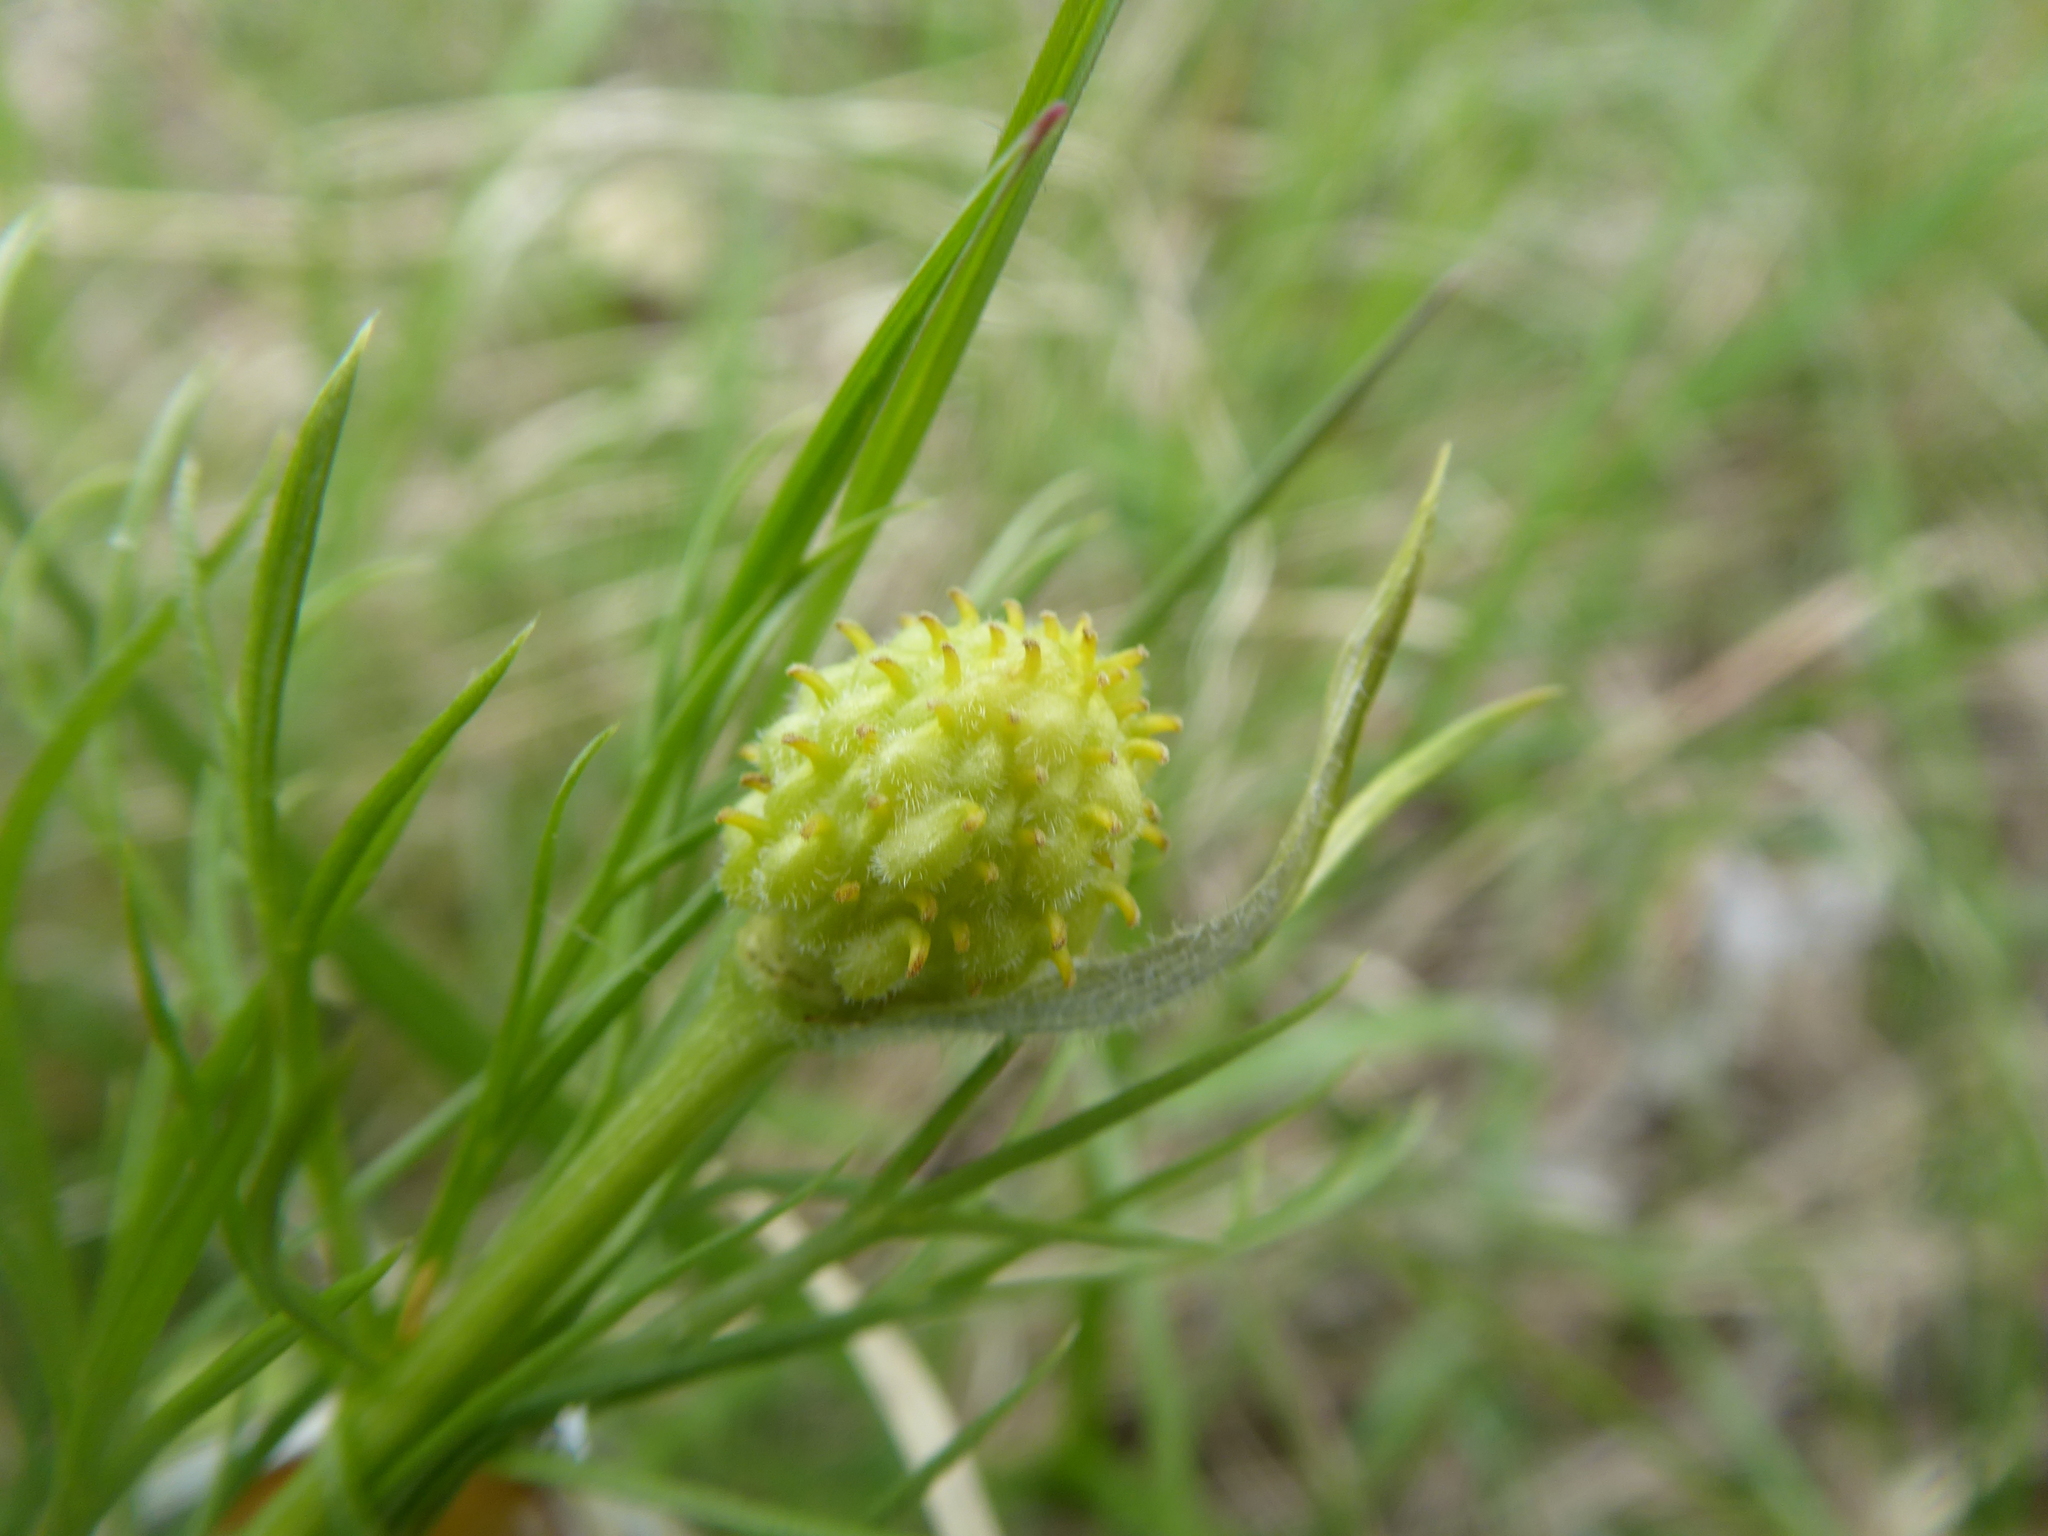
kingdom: Plantae
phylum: Tracheophyta
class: Magnoliopsida
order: Ranunculales
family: Ranunculaceae
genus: Adonis
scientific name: Adonis vernalis
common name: Yellow pheasants-eye
